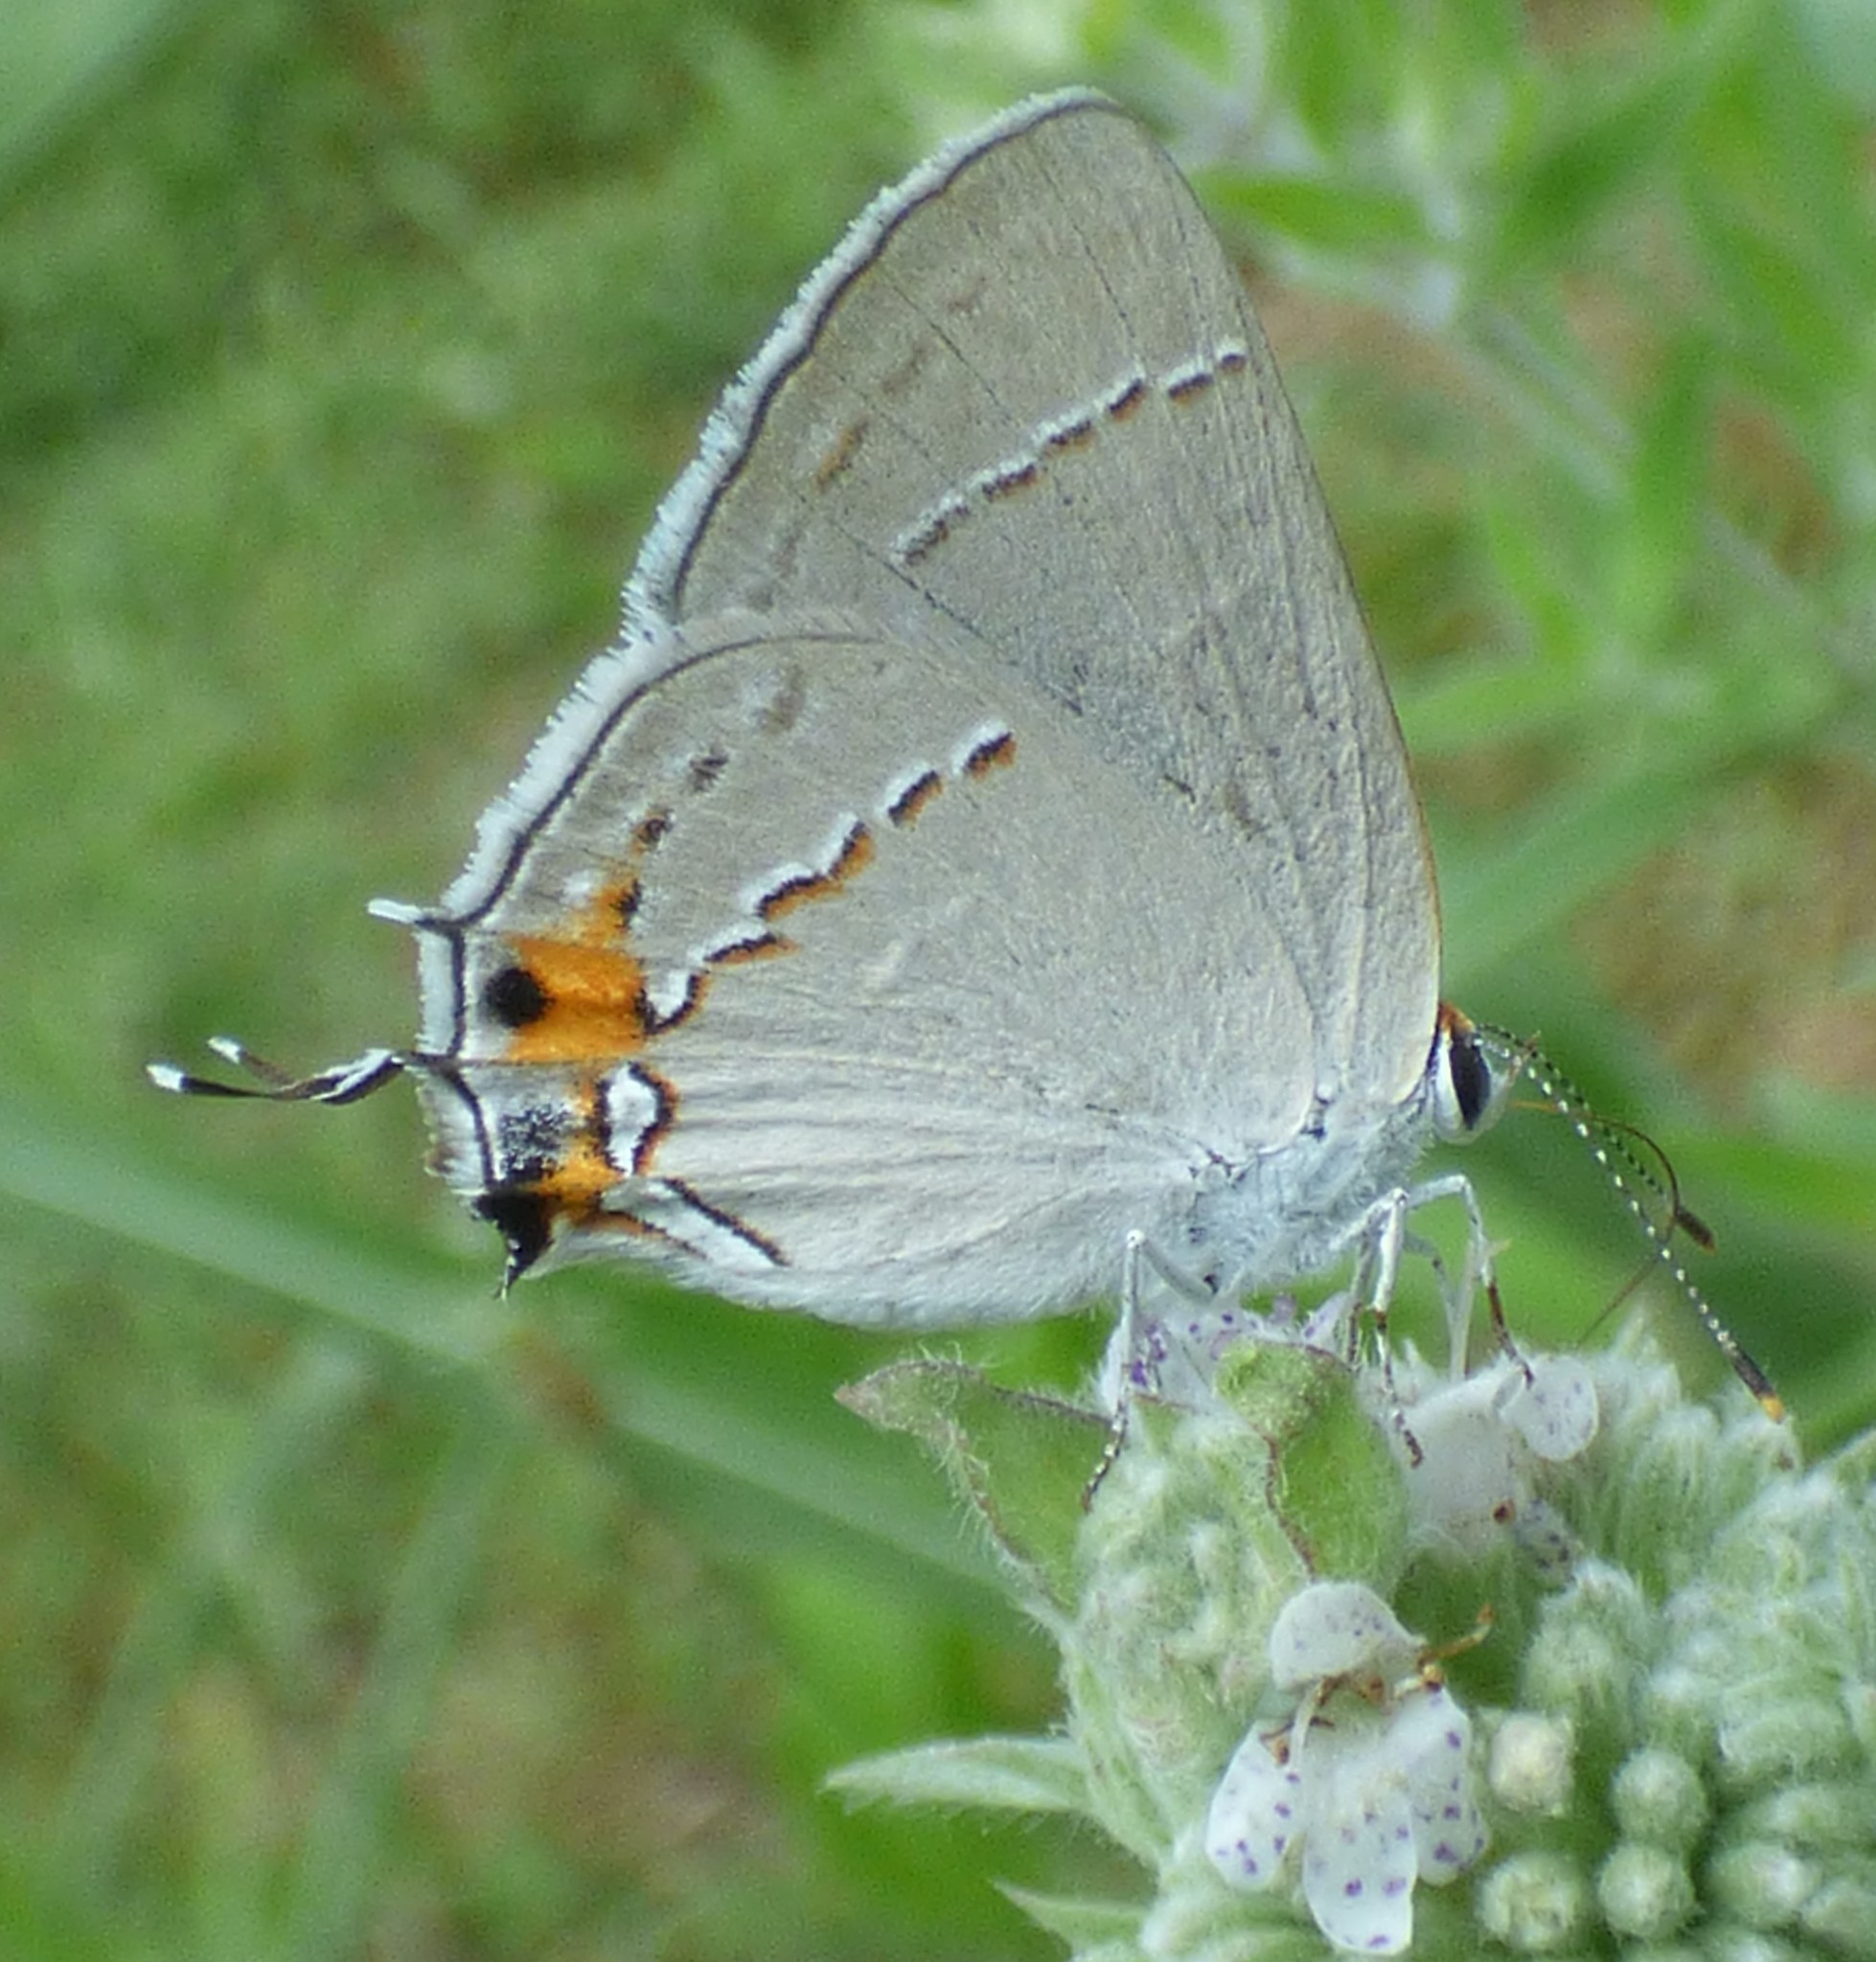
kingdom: Animalia
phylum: Arthropoda
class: Insecta
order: Lepidoptera
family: Lycaenidae
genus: Strymon
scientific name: Strymon melinus
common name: Gray hairstreak
